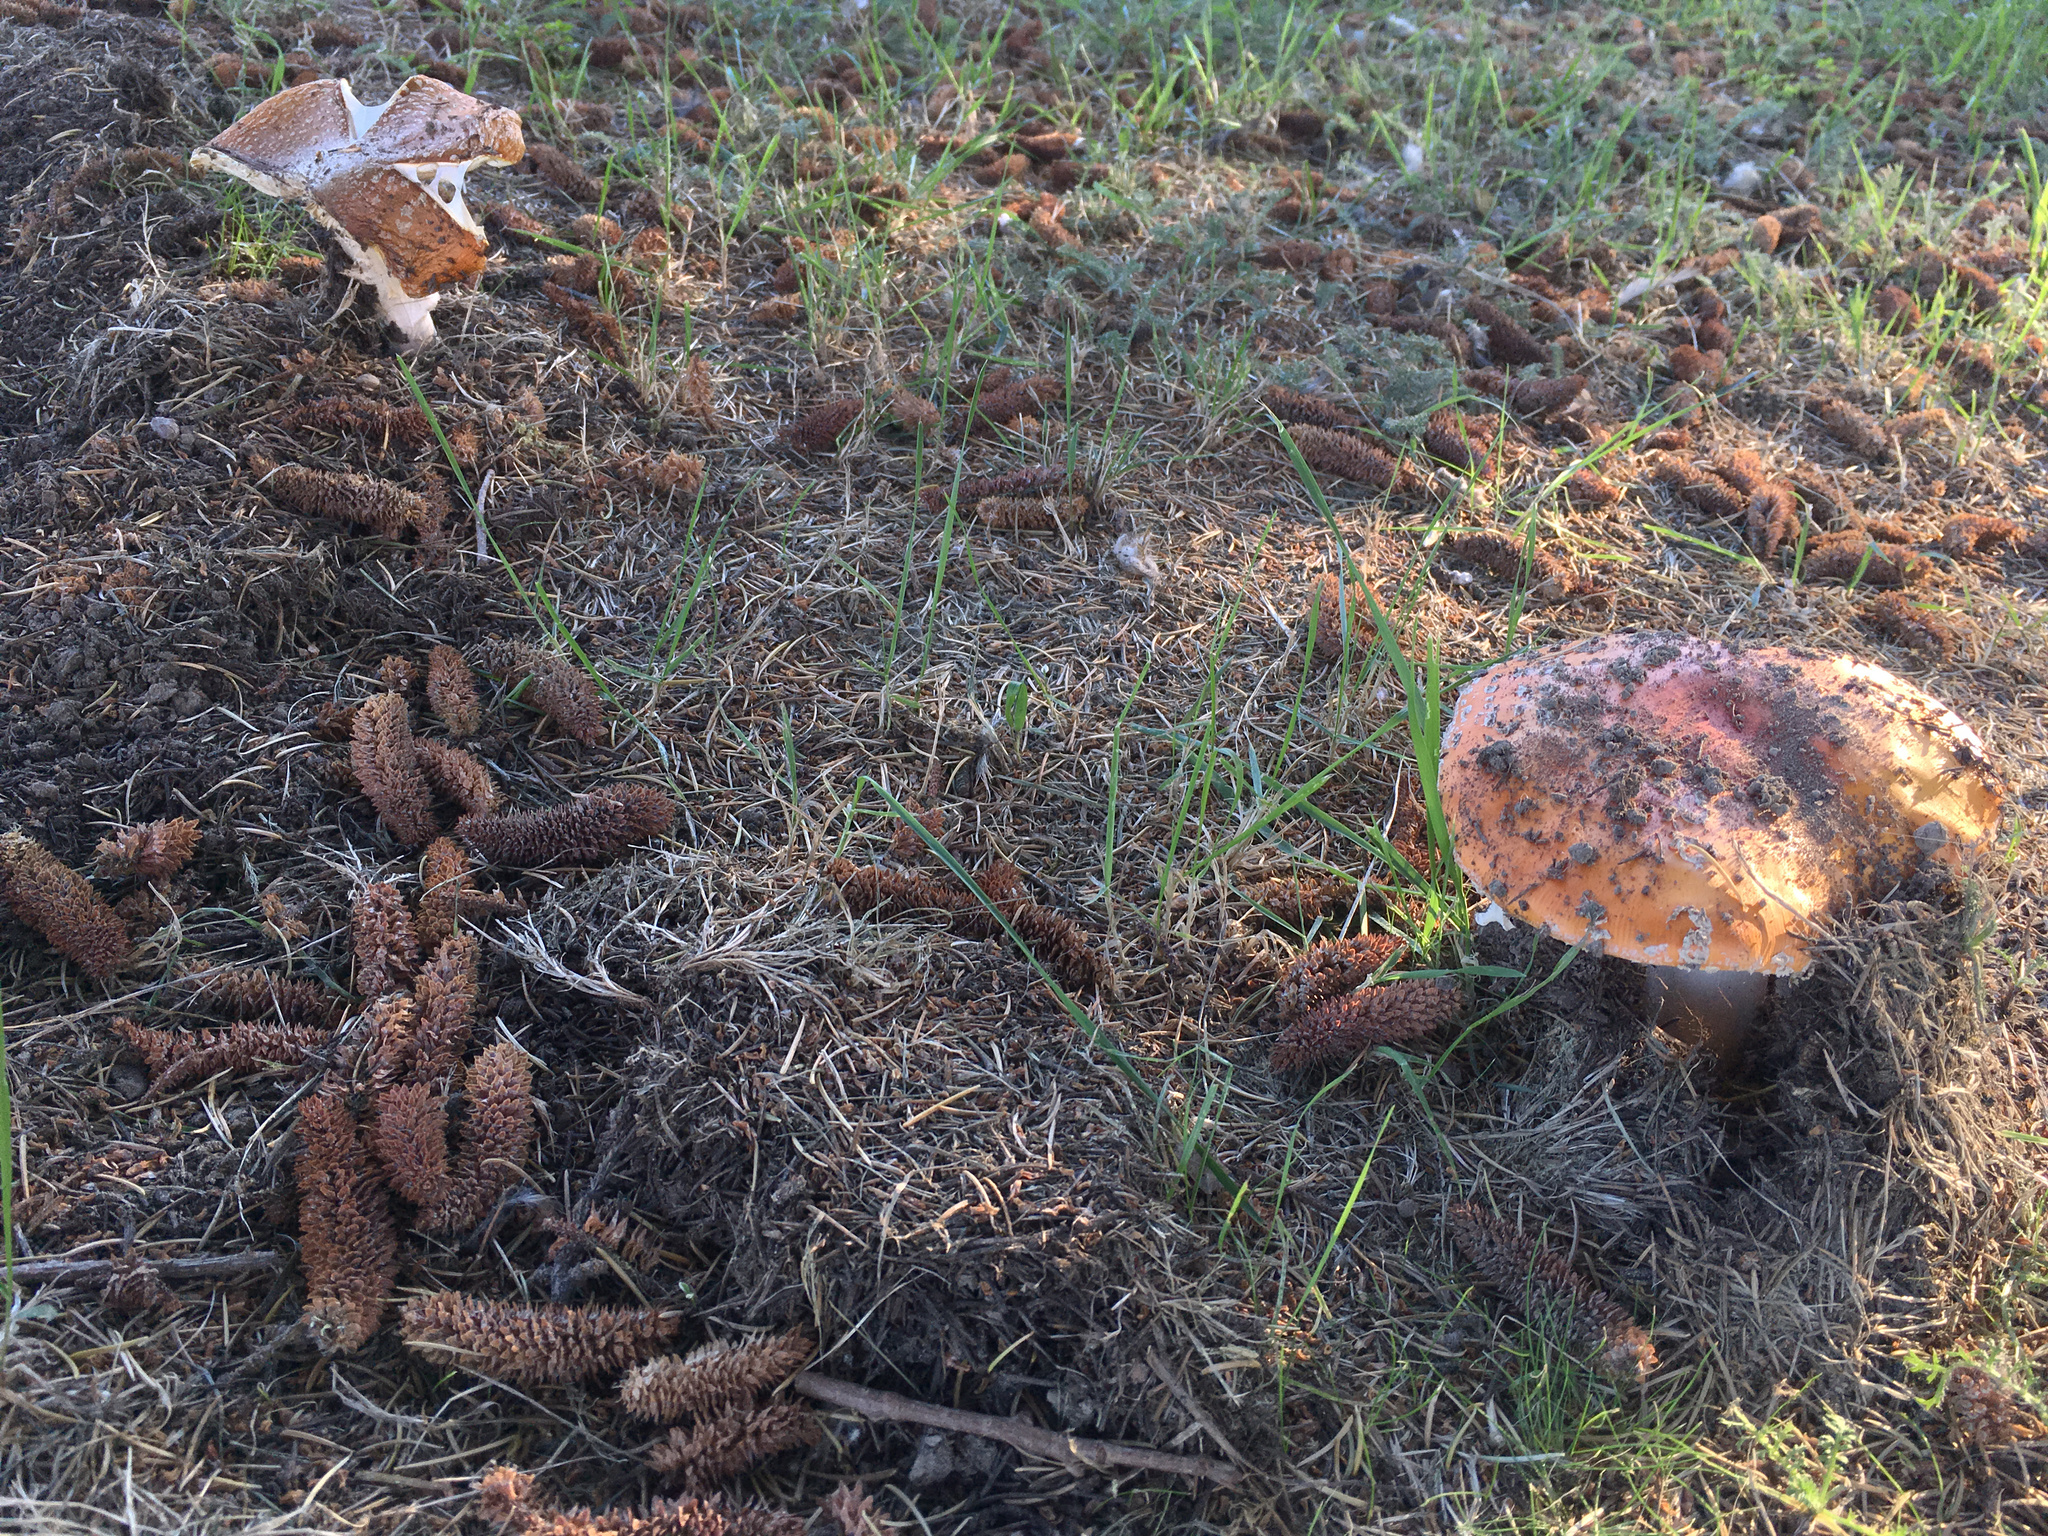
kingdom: Fungi
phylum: Basidiomycota
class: Agaricomycetes
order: Agaricales
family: Amanitaceae
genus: Amanita
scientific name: Amanita muscaria
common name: Fly agaric
